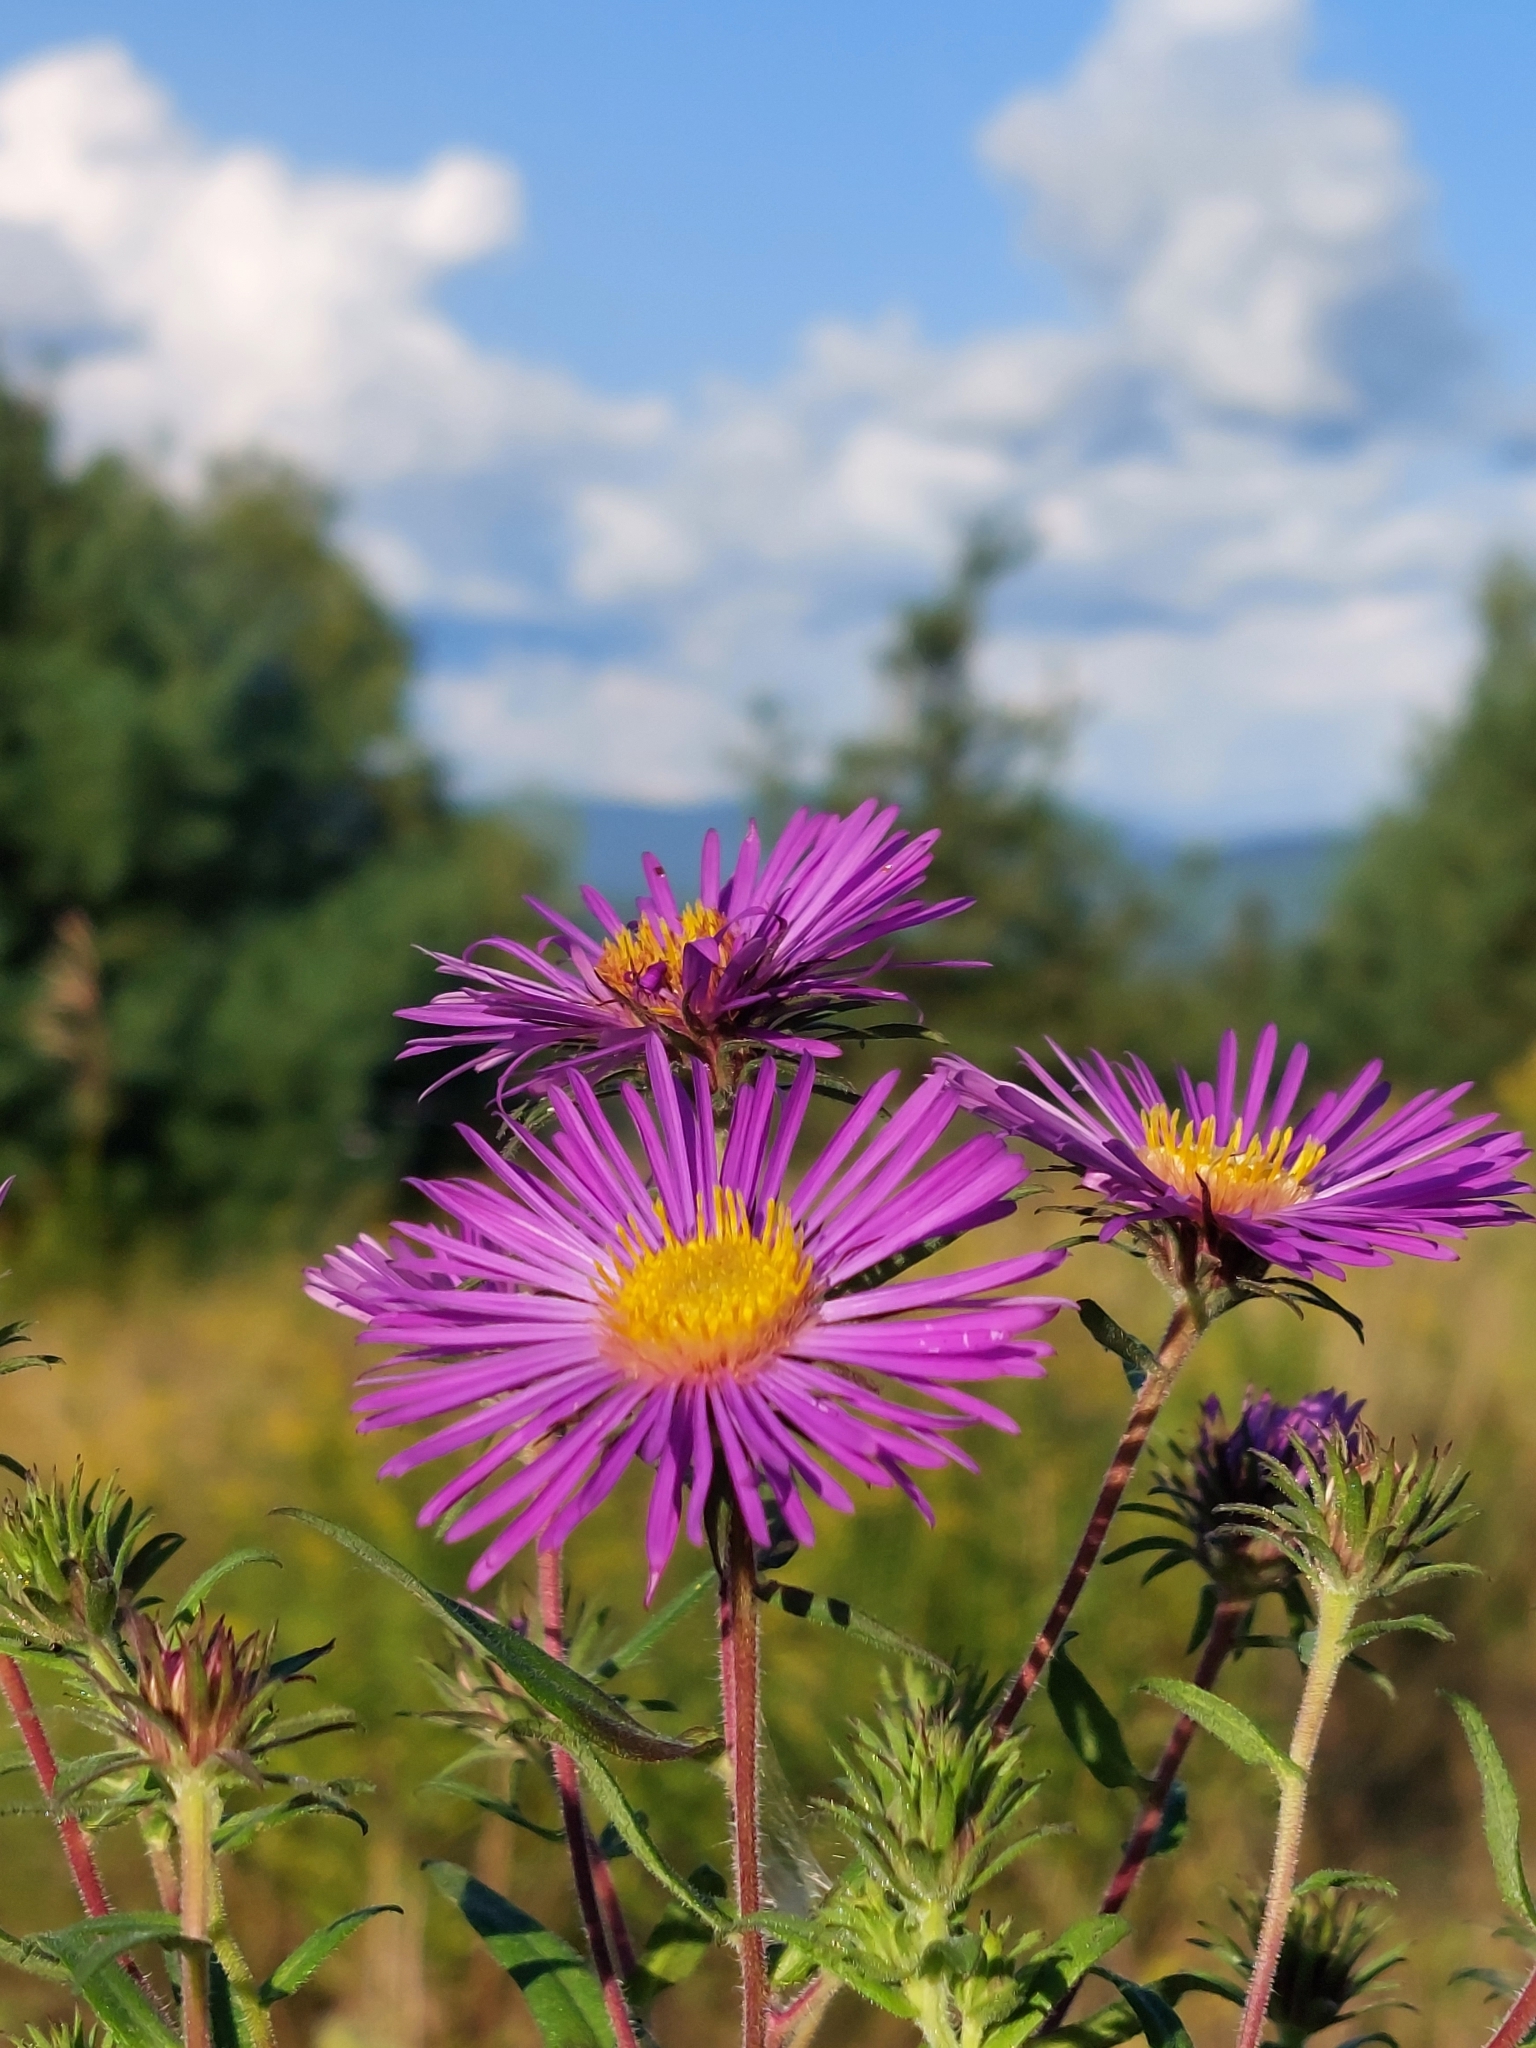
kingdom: Plantae
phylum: Tracheophyta
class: Magnoliopsida
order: Asterales
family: Asteraceae
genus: Symphyotrichum
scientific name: Symphyotrichum novae-angliae
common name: Michaelmas daisy
